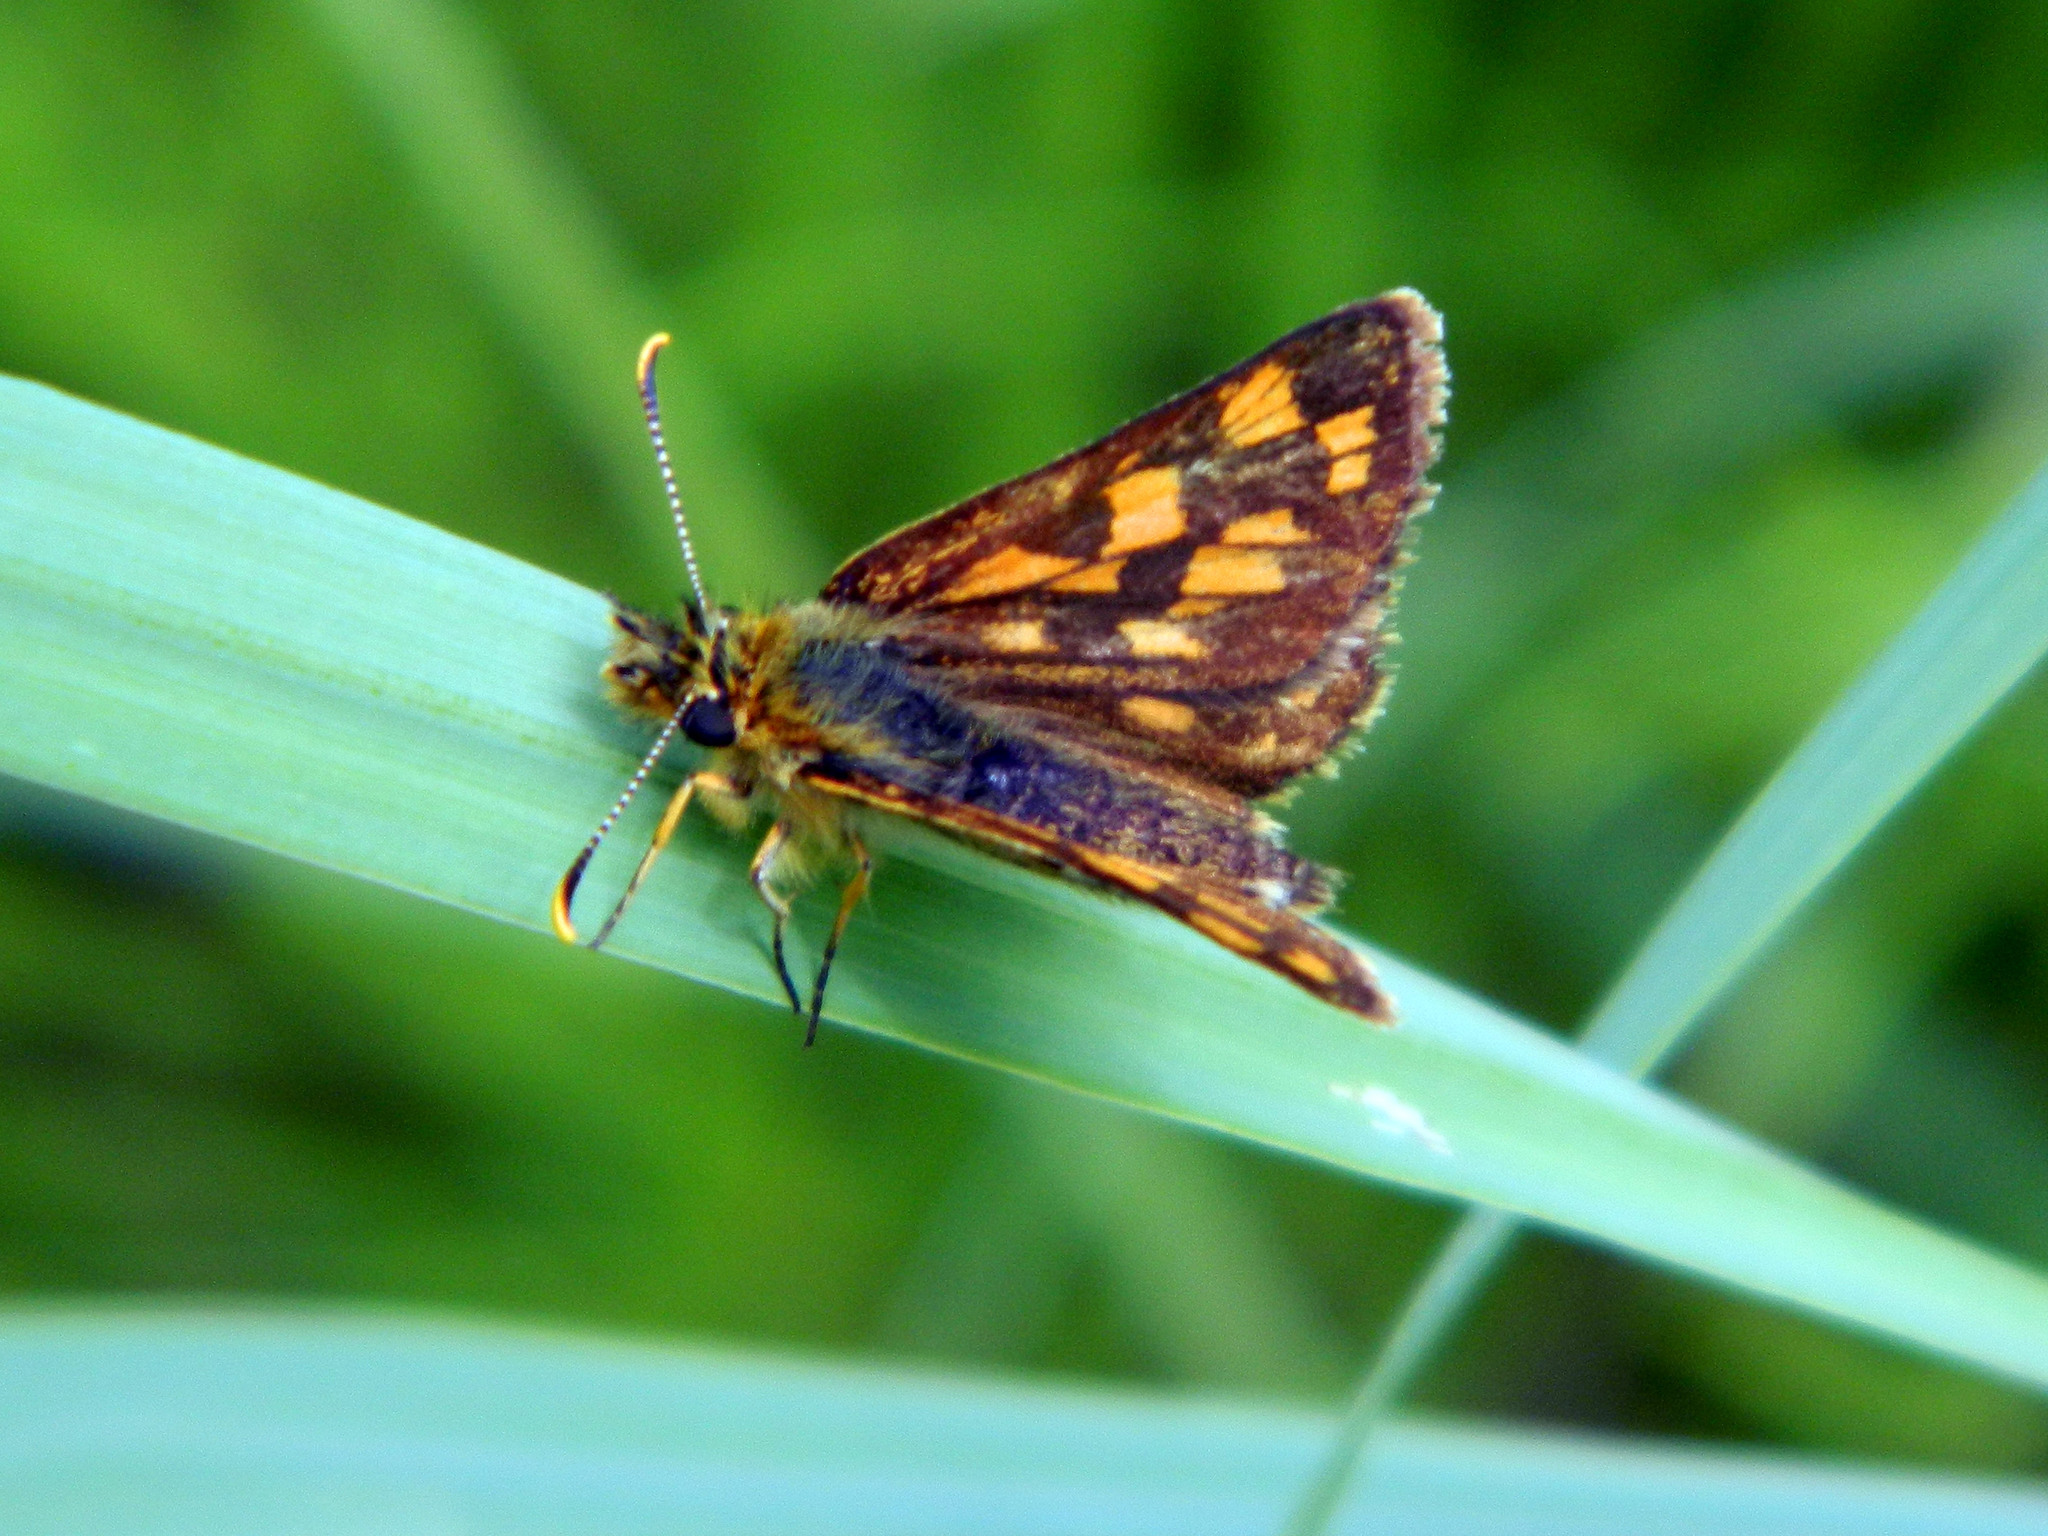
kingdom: Animalia
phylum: Arthropoda
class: Insecta
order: Lepidoptera
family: Hesperiidae
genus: Carterocephalus
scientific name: Carterocephalus mandan
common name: Arctic skipperling
